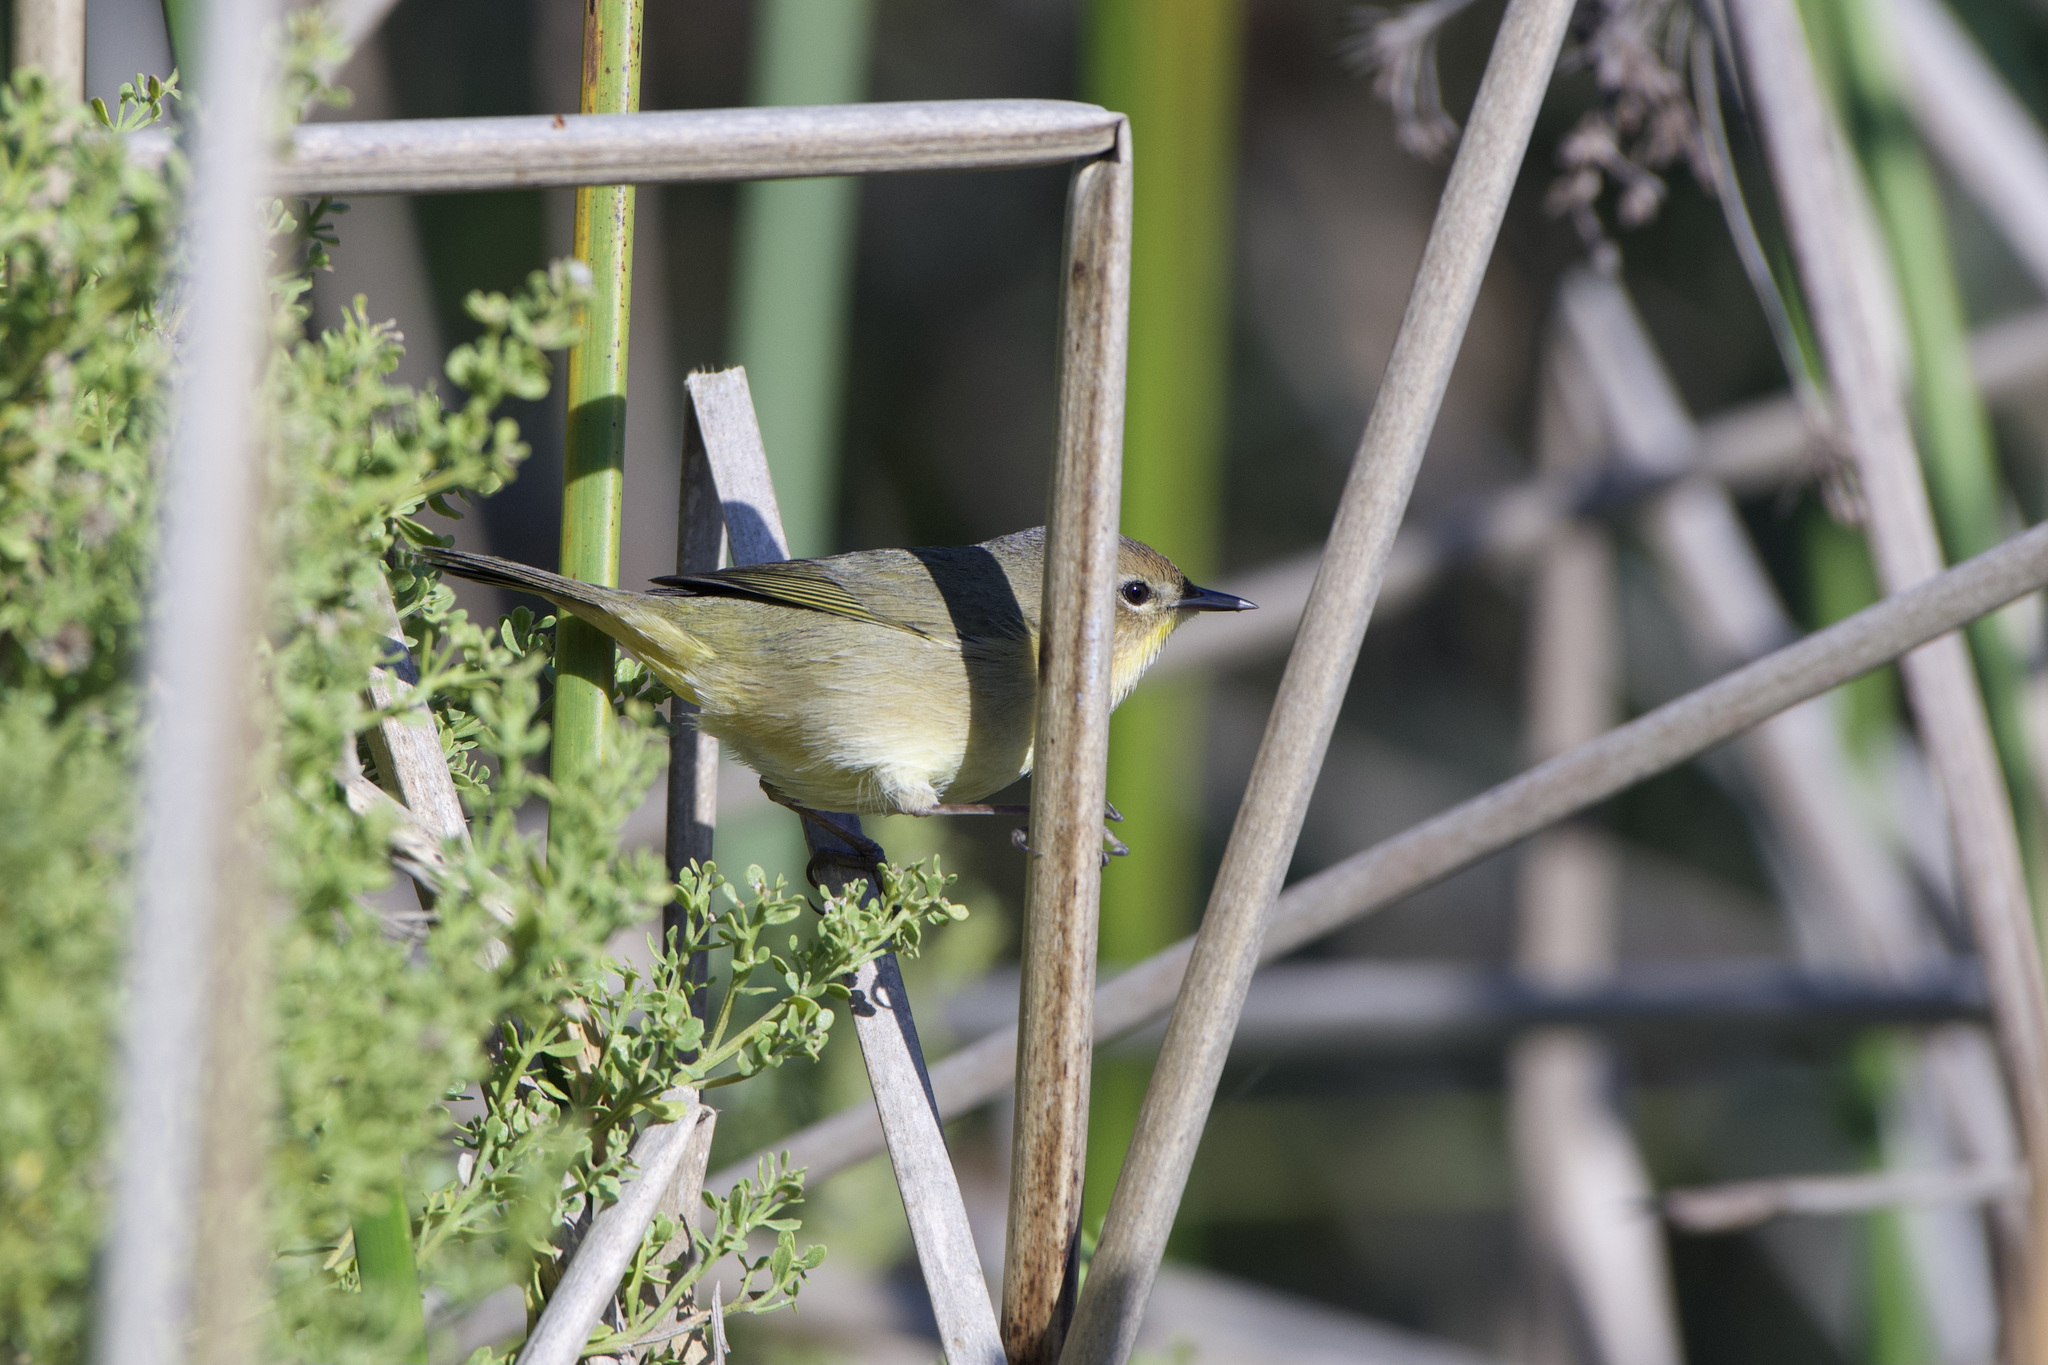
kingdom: Animalia
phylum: Chordata
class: Aves
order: Passeriformes
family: Parulidae
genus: Geothlypis
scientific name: Geothlypis trichas
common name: Common yellowthroat
